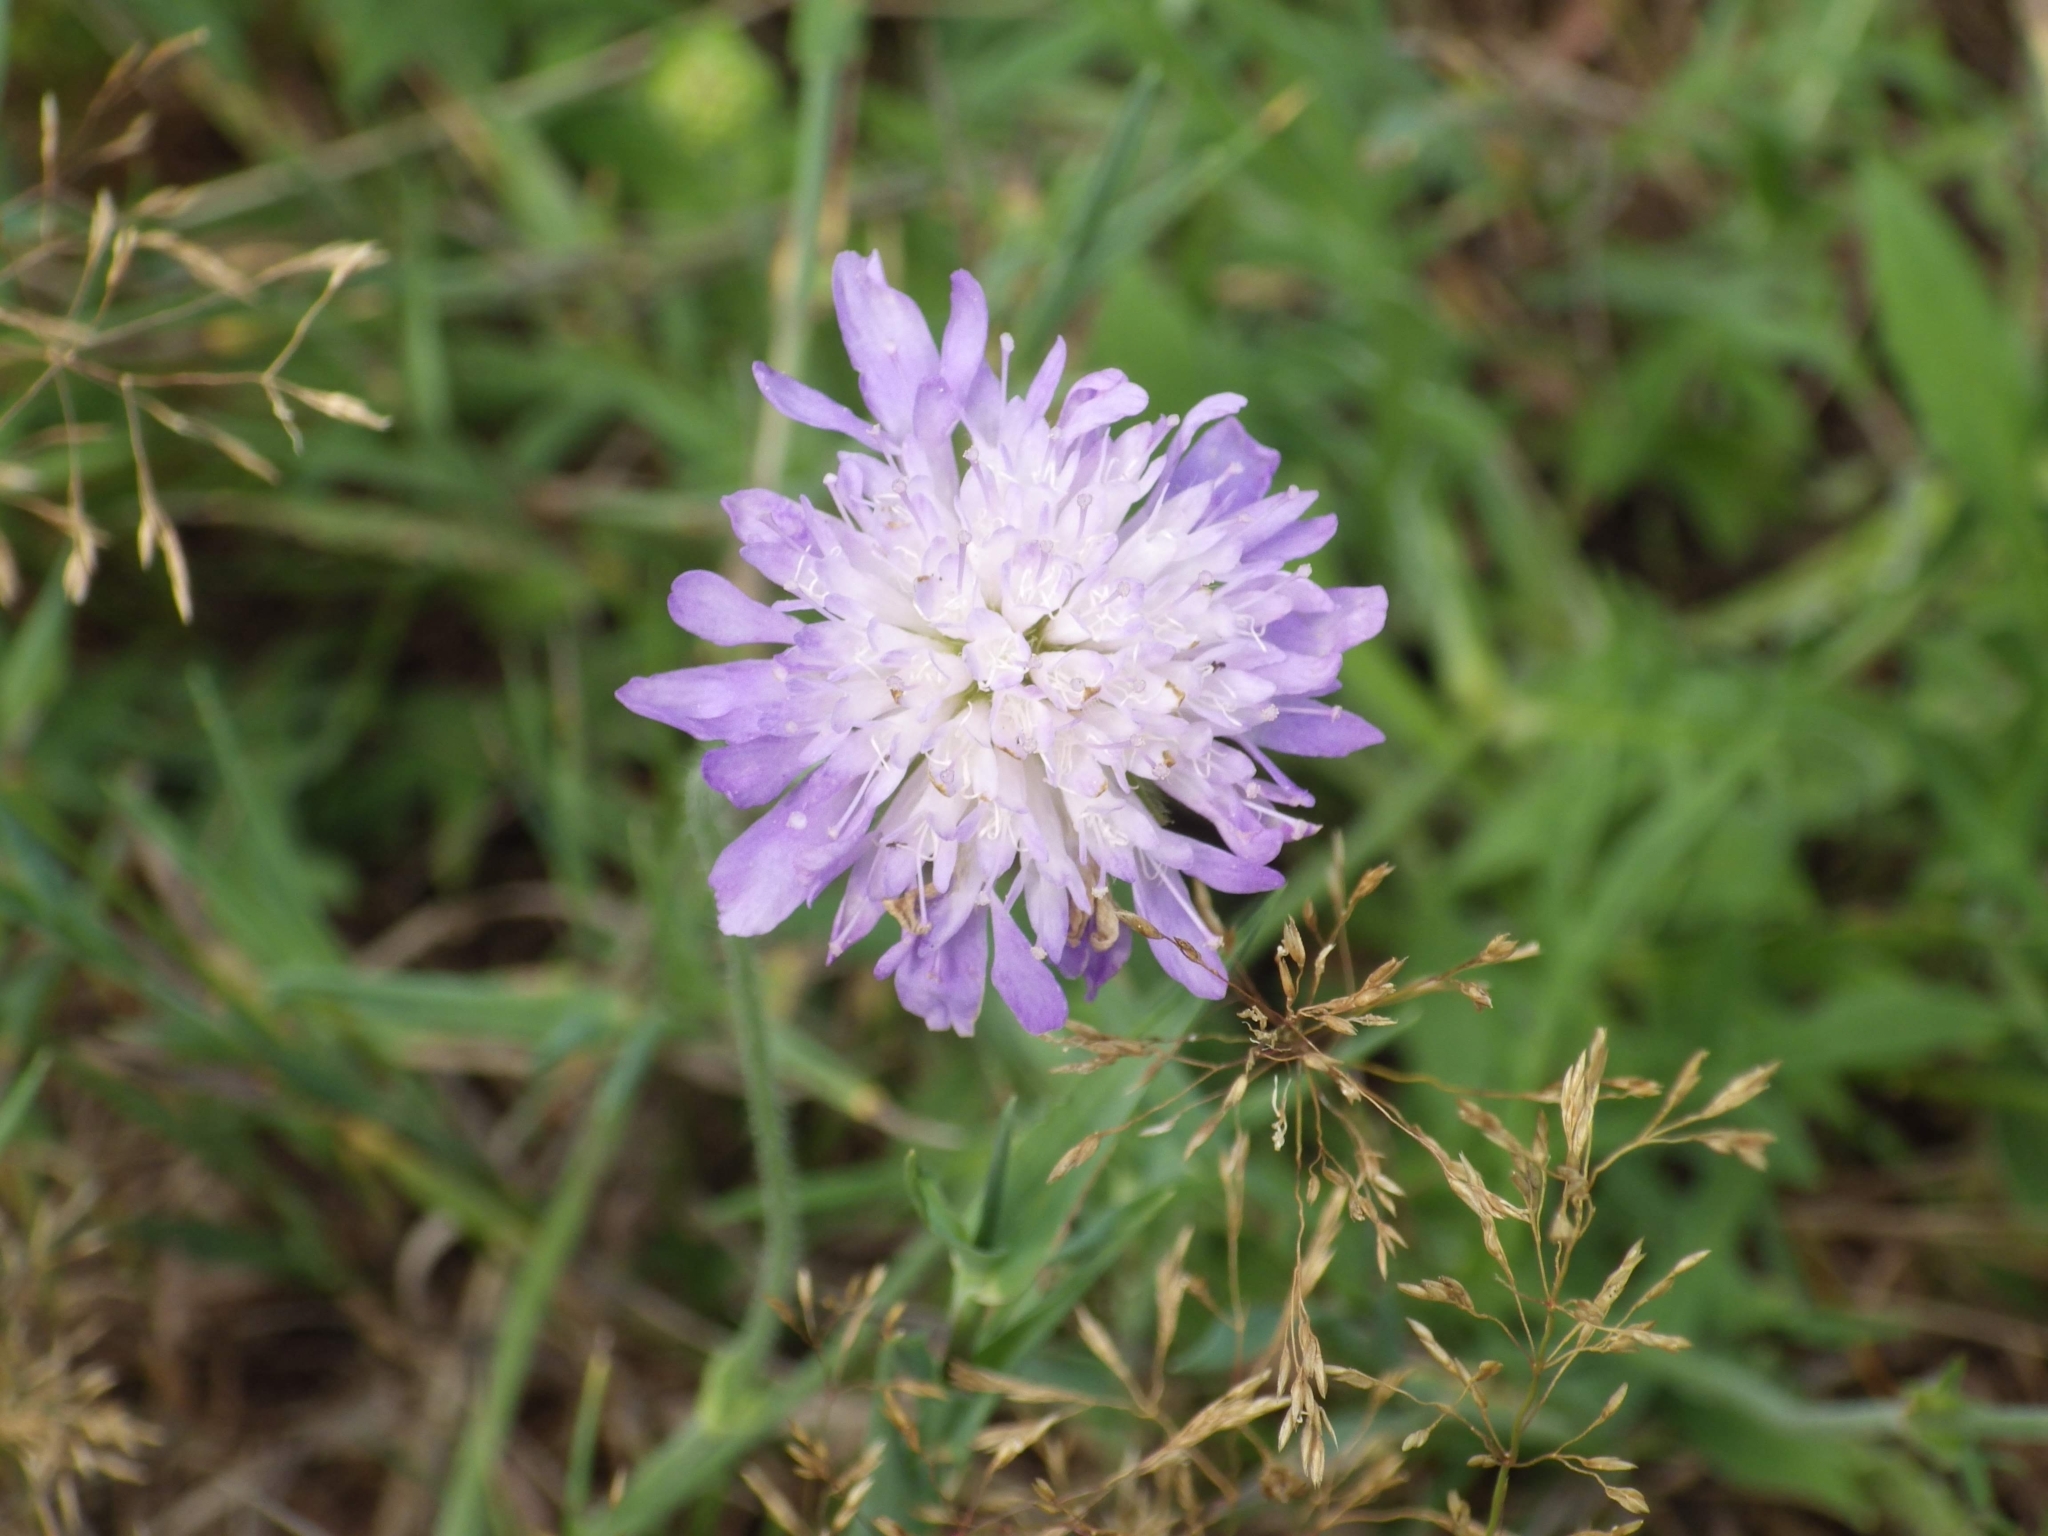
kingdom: Plantae
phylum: Tracheophyta
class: Magnoliopsida
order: Dipsacales
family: Caprifoliaceae
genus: Knautia
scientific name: Knautia arvensis
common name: Field scabiosa
